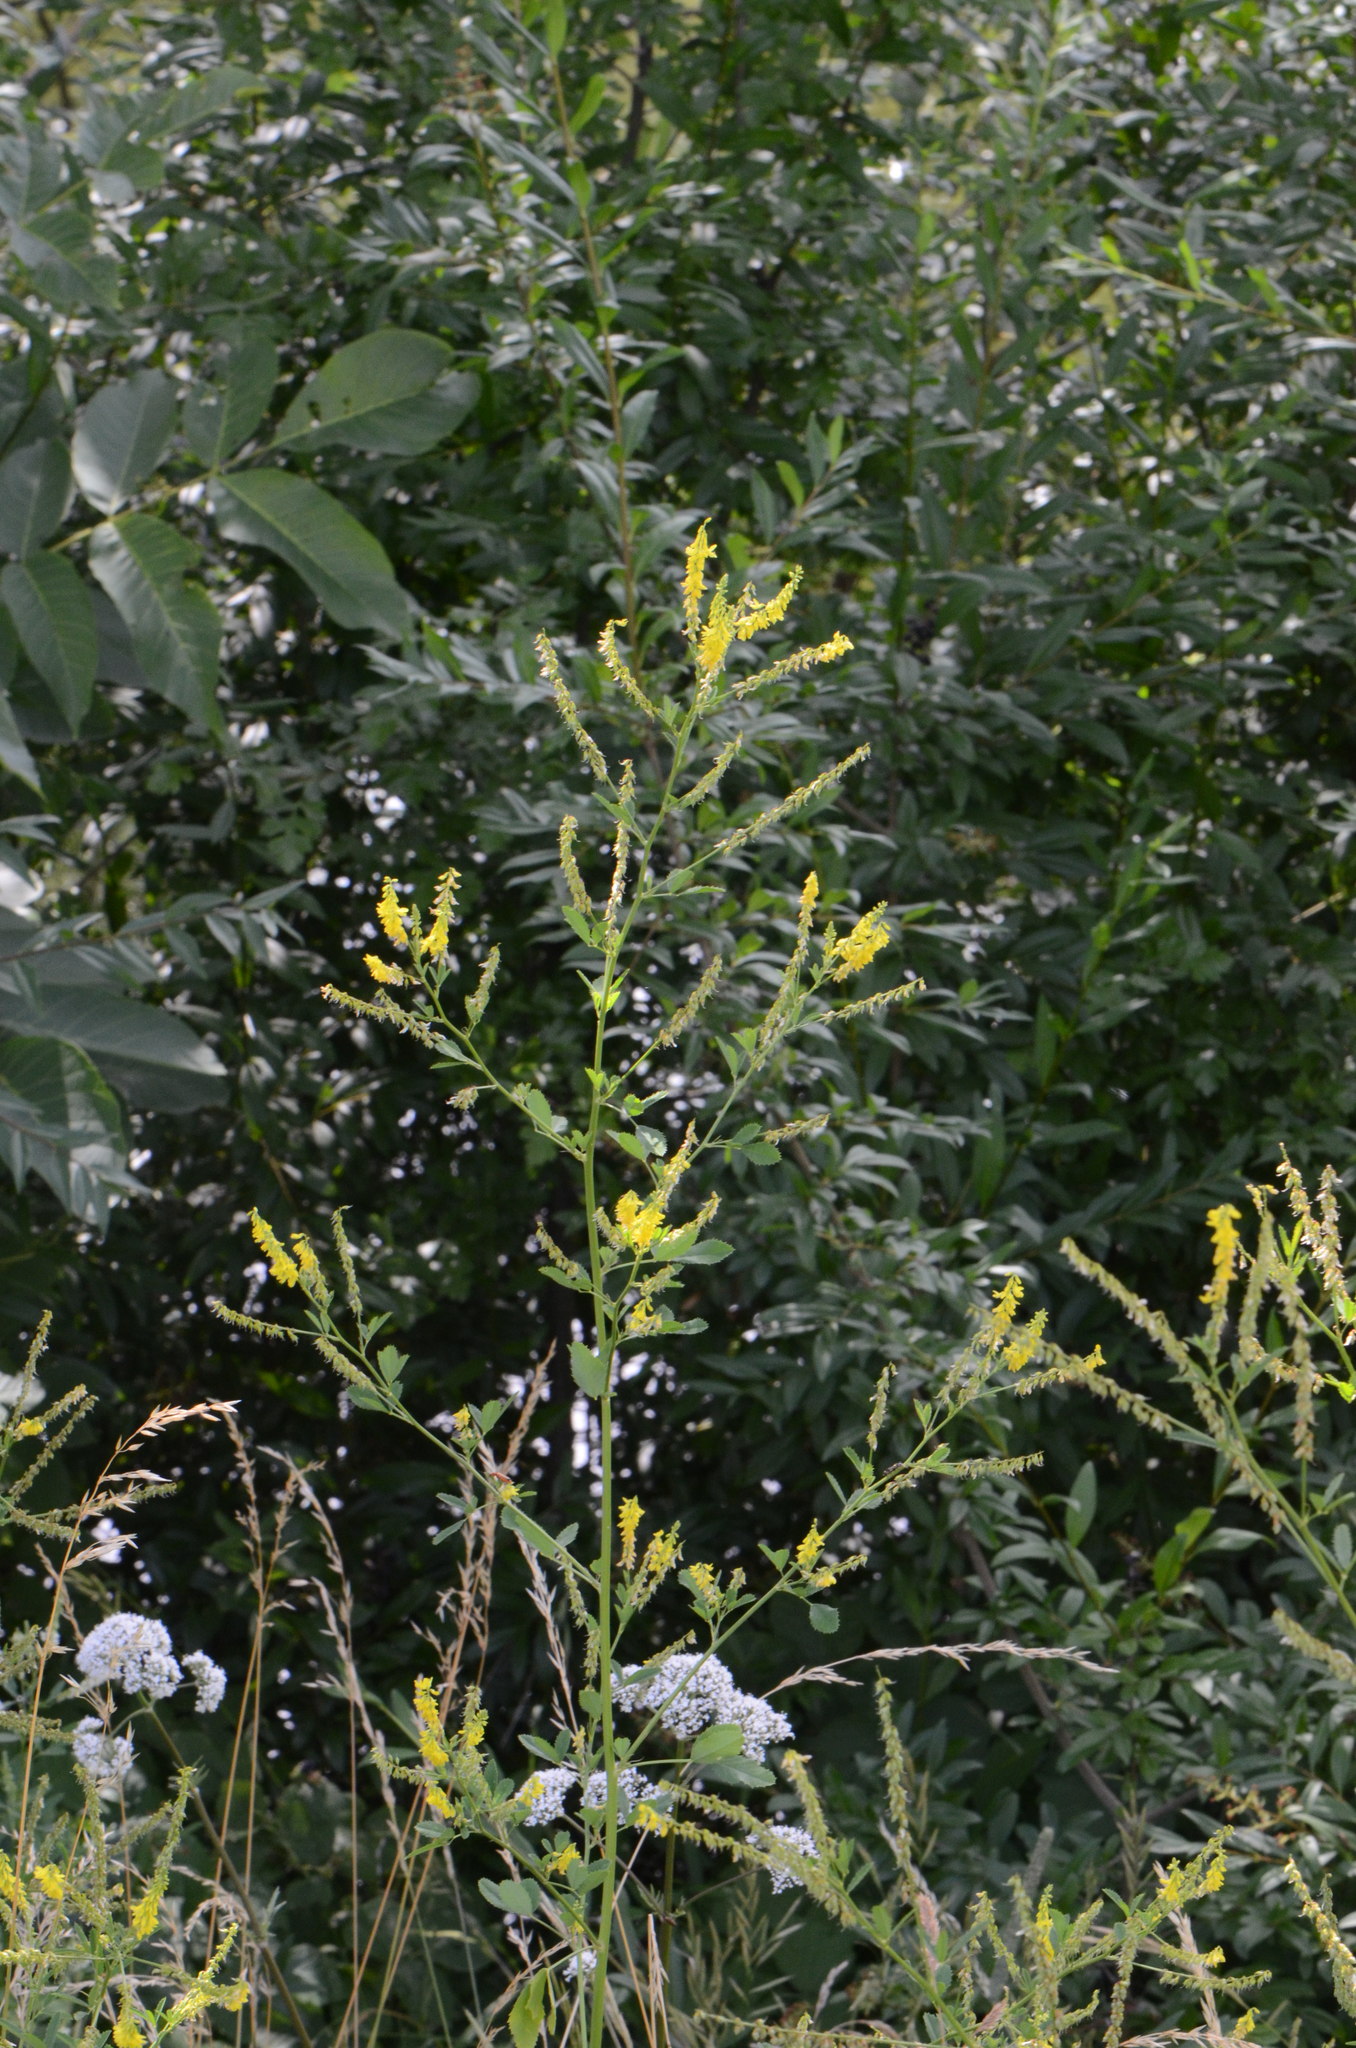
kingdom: Plantae
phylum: Tracheophyta
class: Magnoliopsida
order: Fabales
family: Fabaceae
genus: Melilotus
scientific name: Melilotus officinalis
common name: Sweetclover
